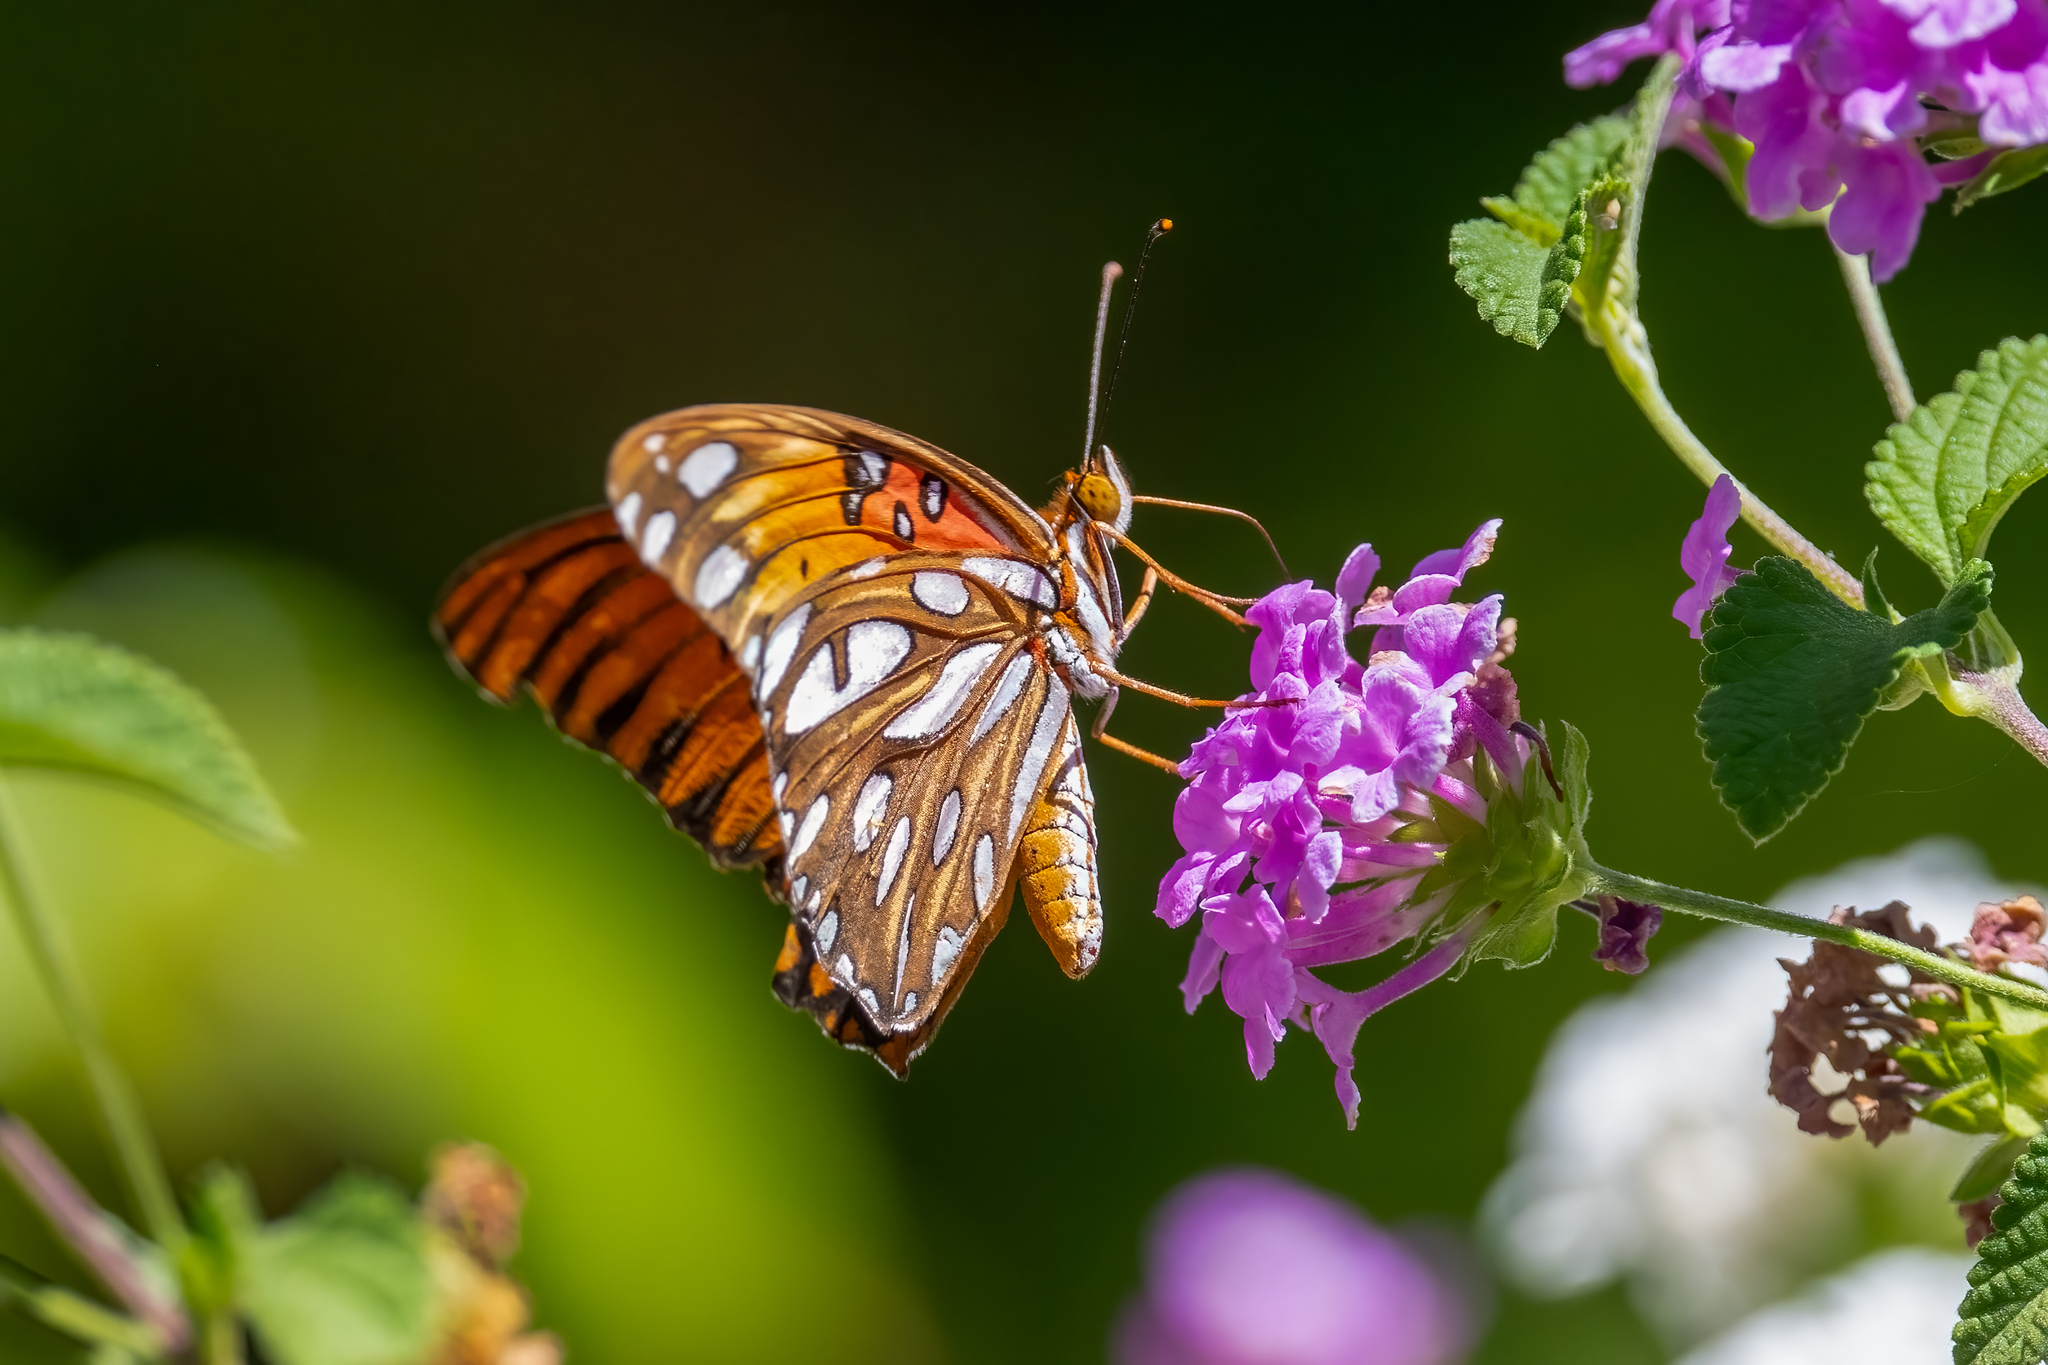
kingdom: Animalia
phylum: Arthropoda
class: Insecta
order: Lepidoptera
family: Nymphalidae
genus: Dione
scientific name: Dione vanillae
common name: Gulf fritillary
